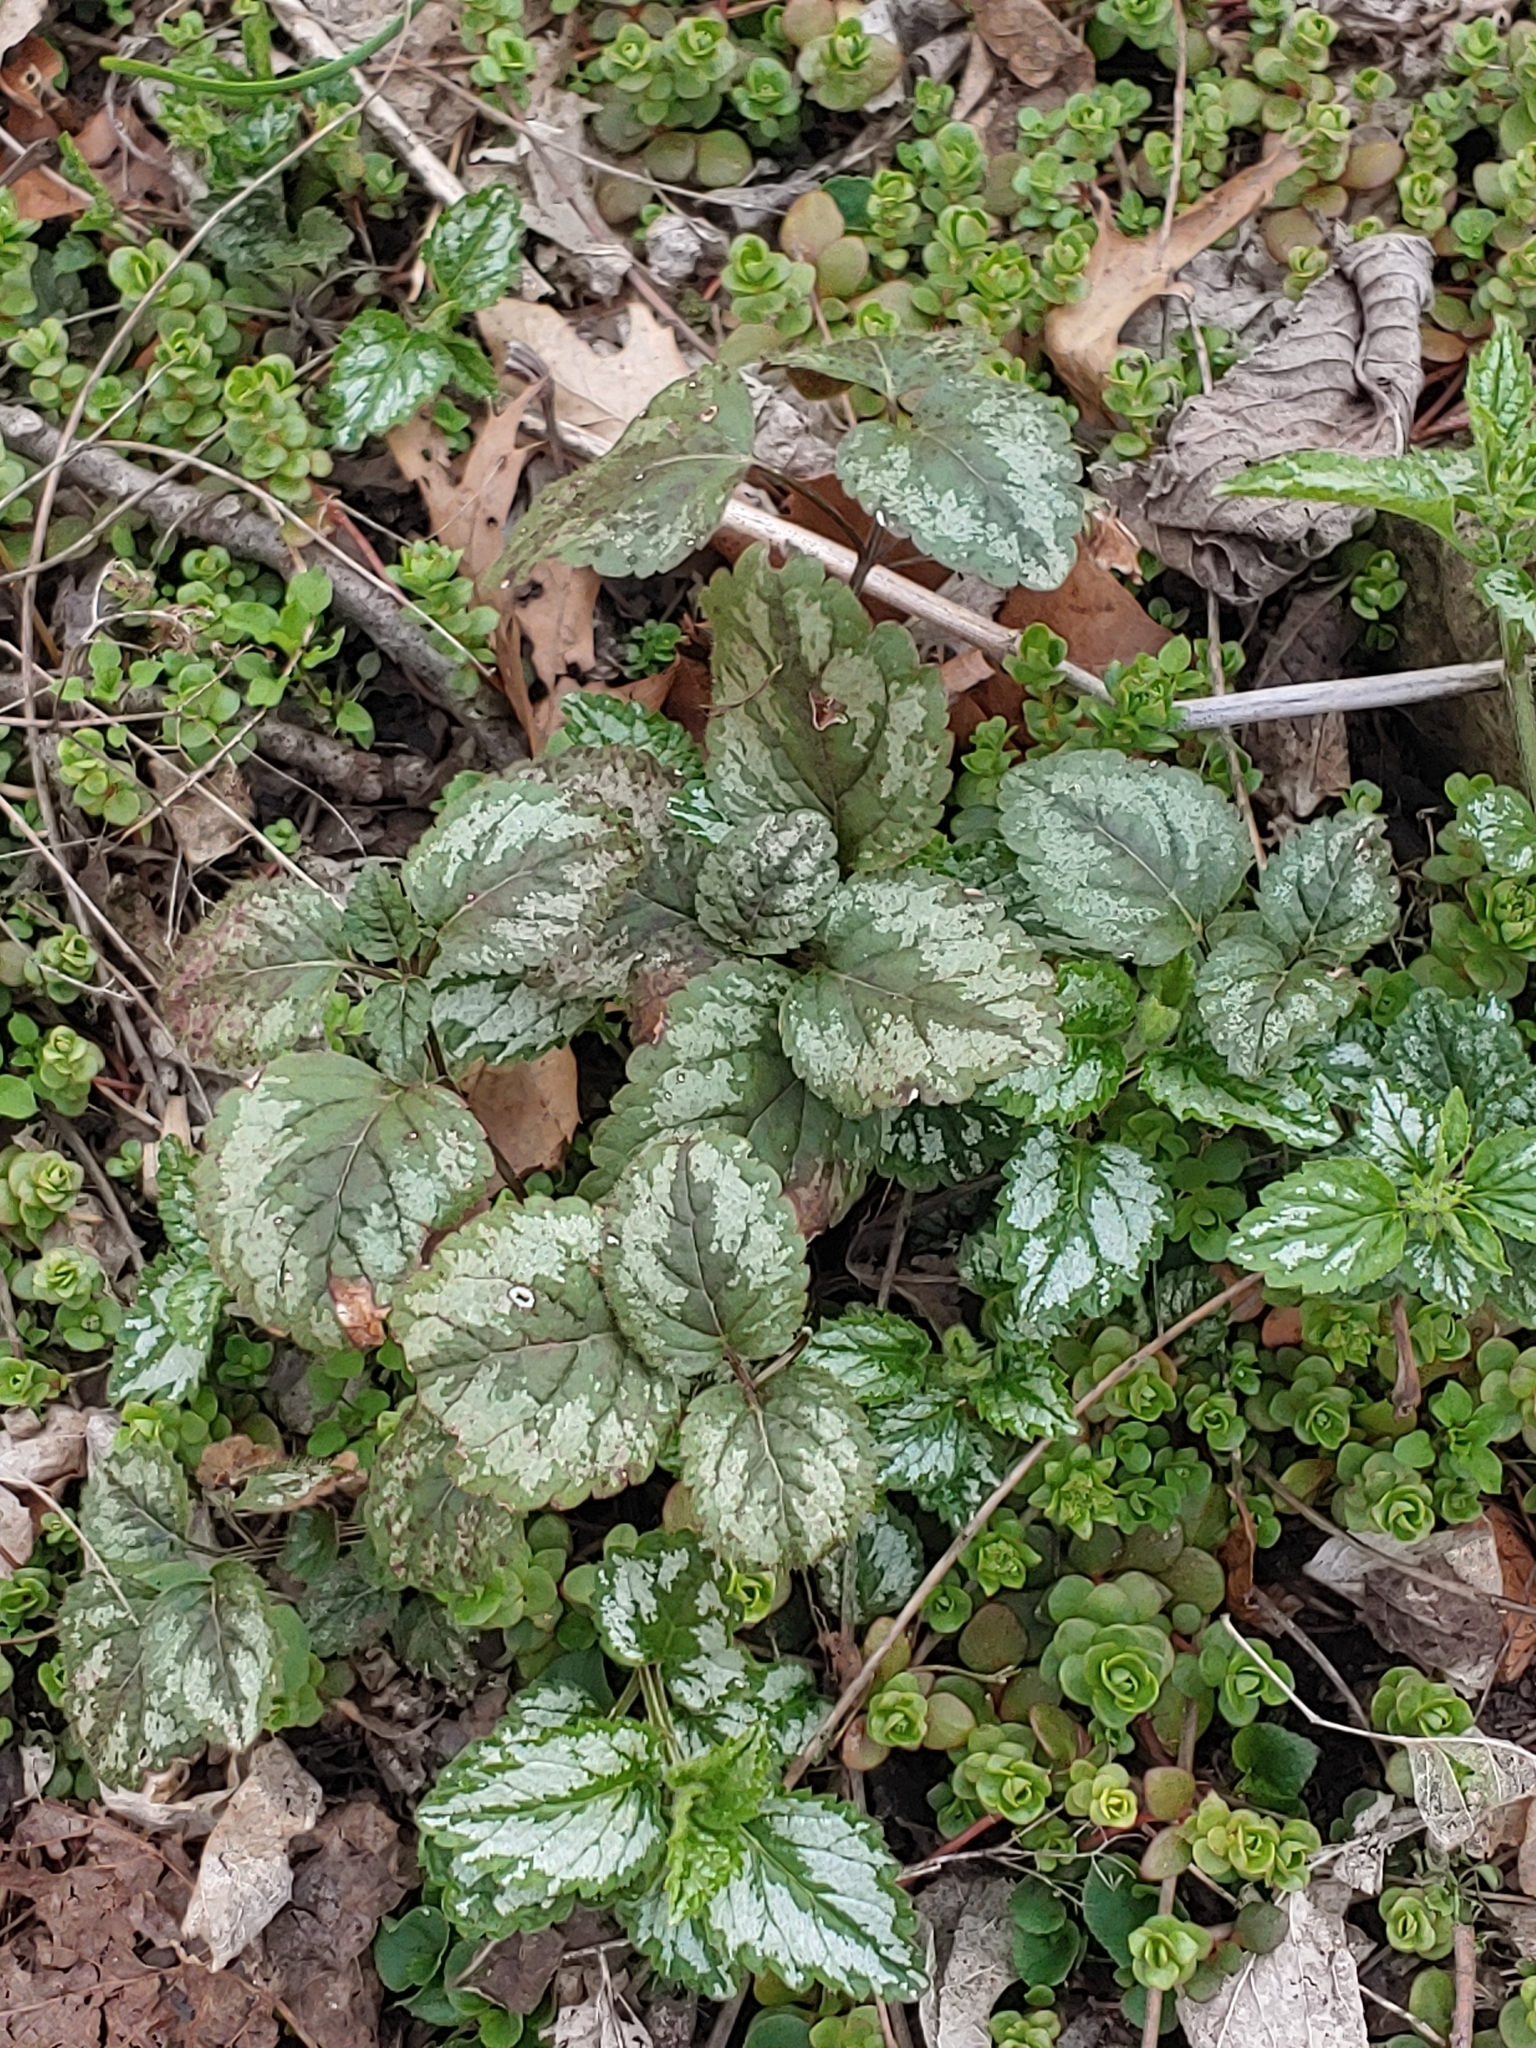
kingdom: Plantae
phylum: Tracheophyta
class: Magnoliopsida
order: Lamiales
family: Lamiaceae
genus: Lamium
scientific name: Lamium galeobdolon
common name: Yellow archangel
